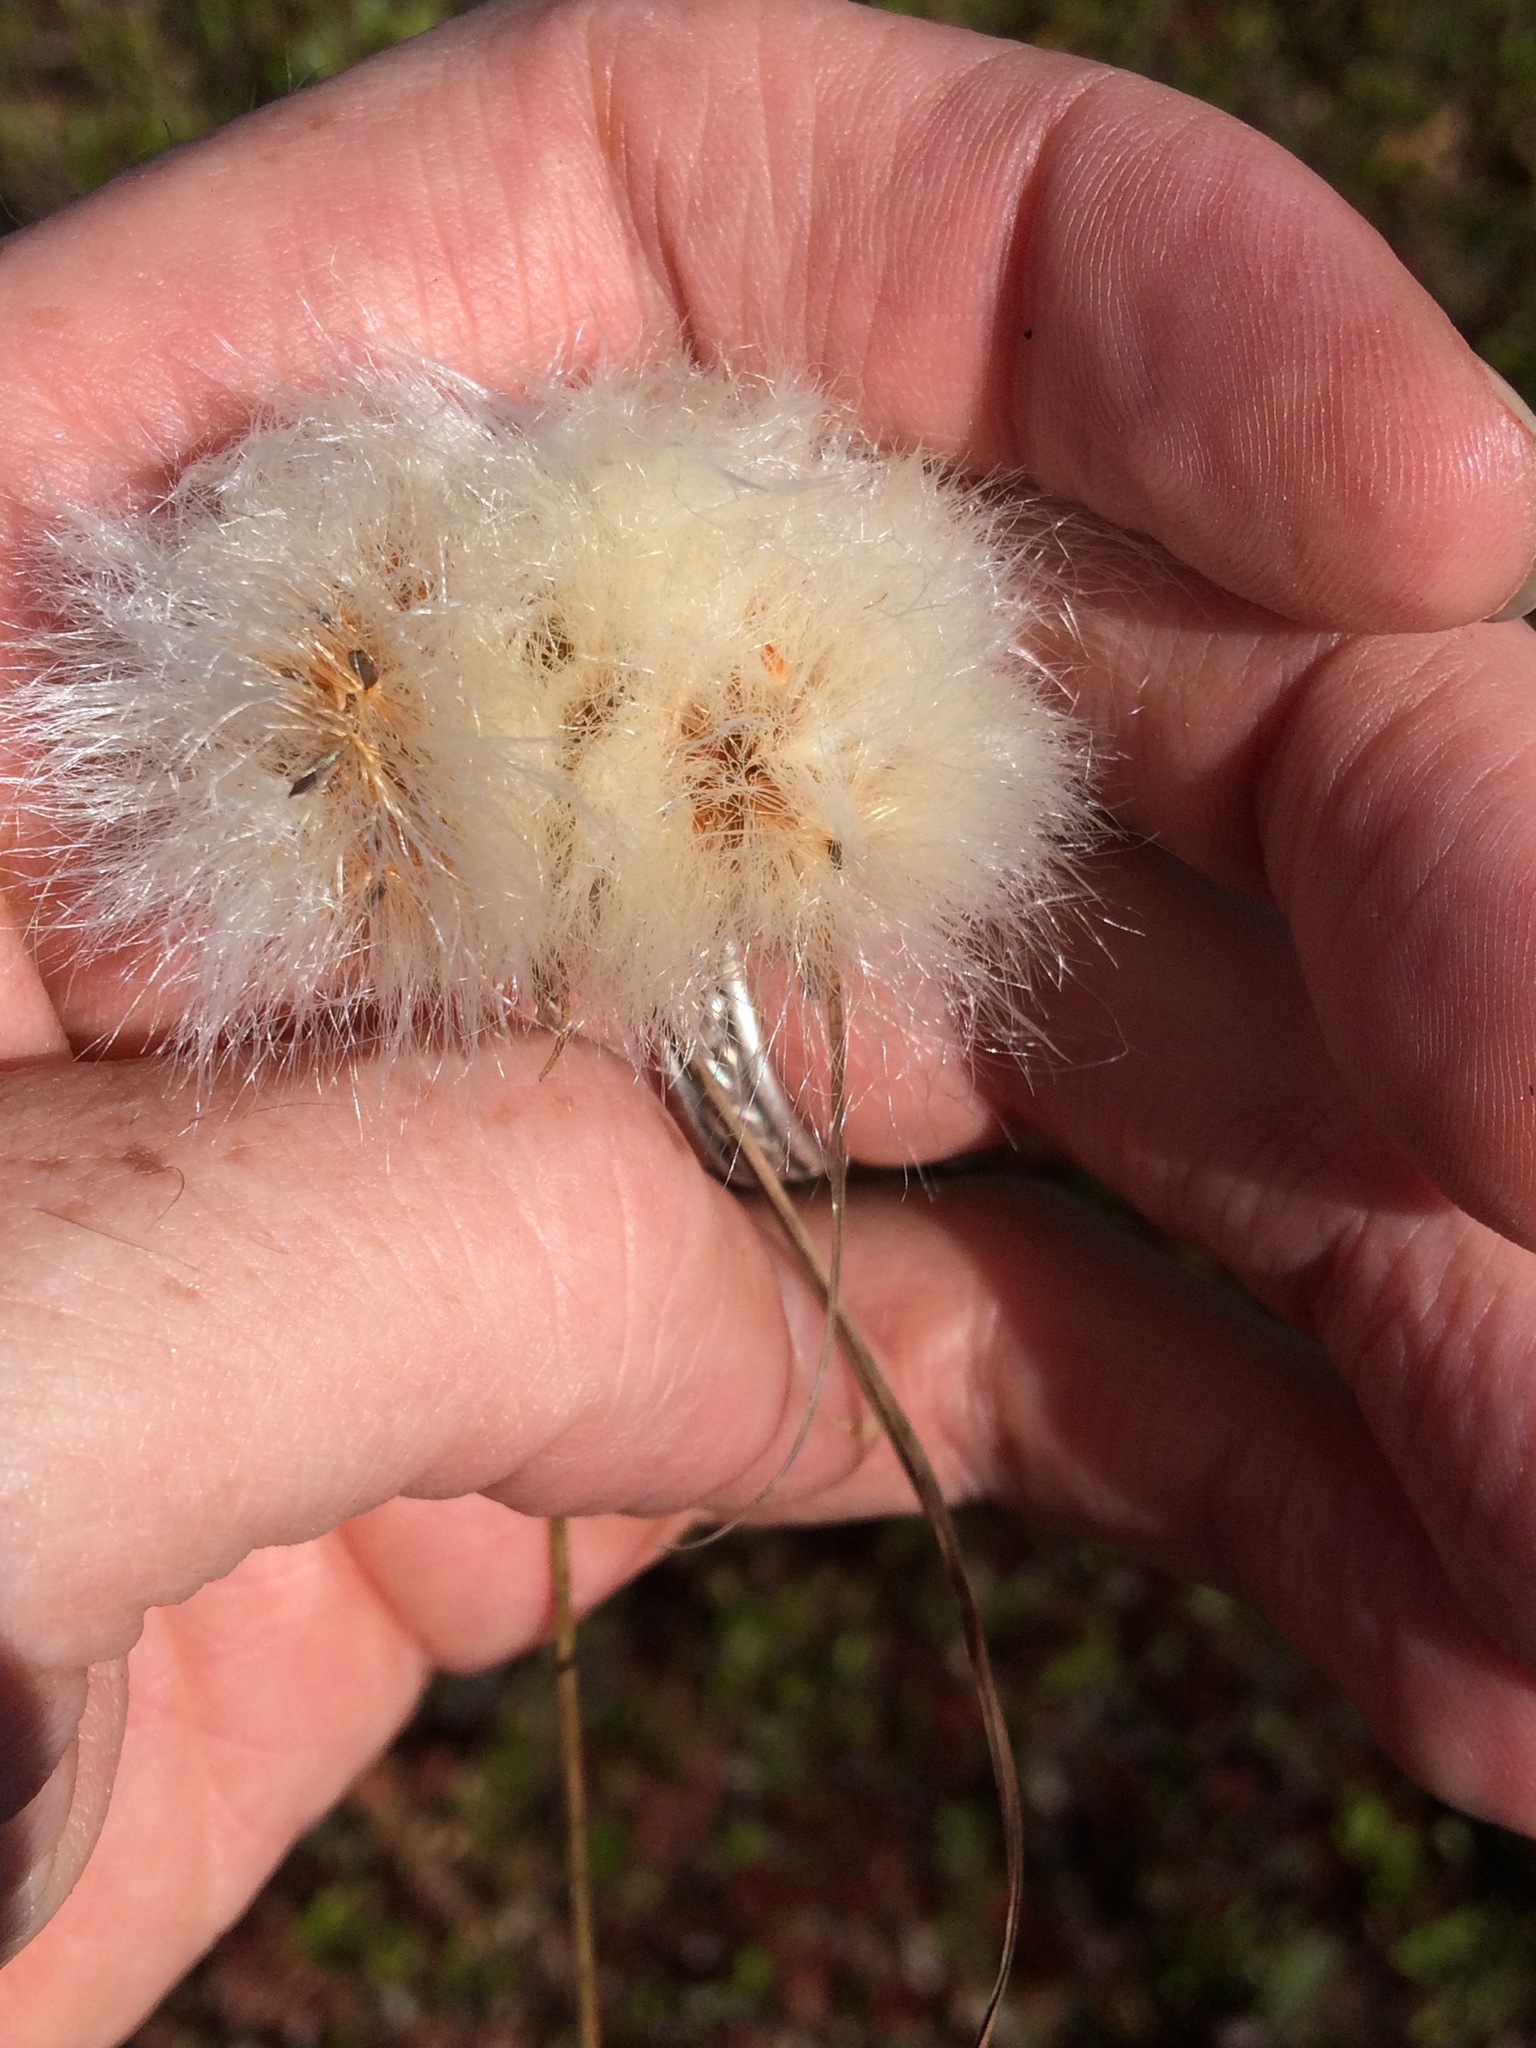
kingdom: Plantae
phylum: Tracheophyta
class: Liliopsida
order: Poales
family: Cyperaceae
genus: Eriophorum
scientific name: Eriophorum virginicum
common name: Tawny cottongrass
